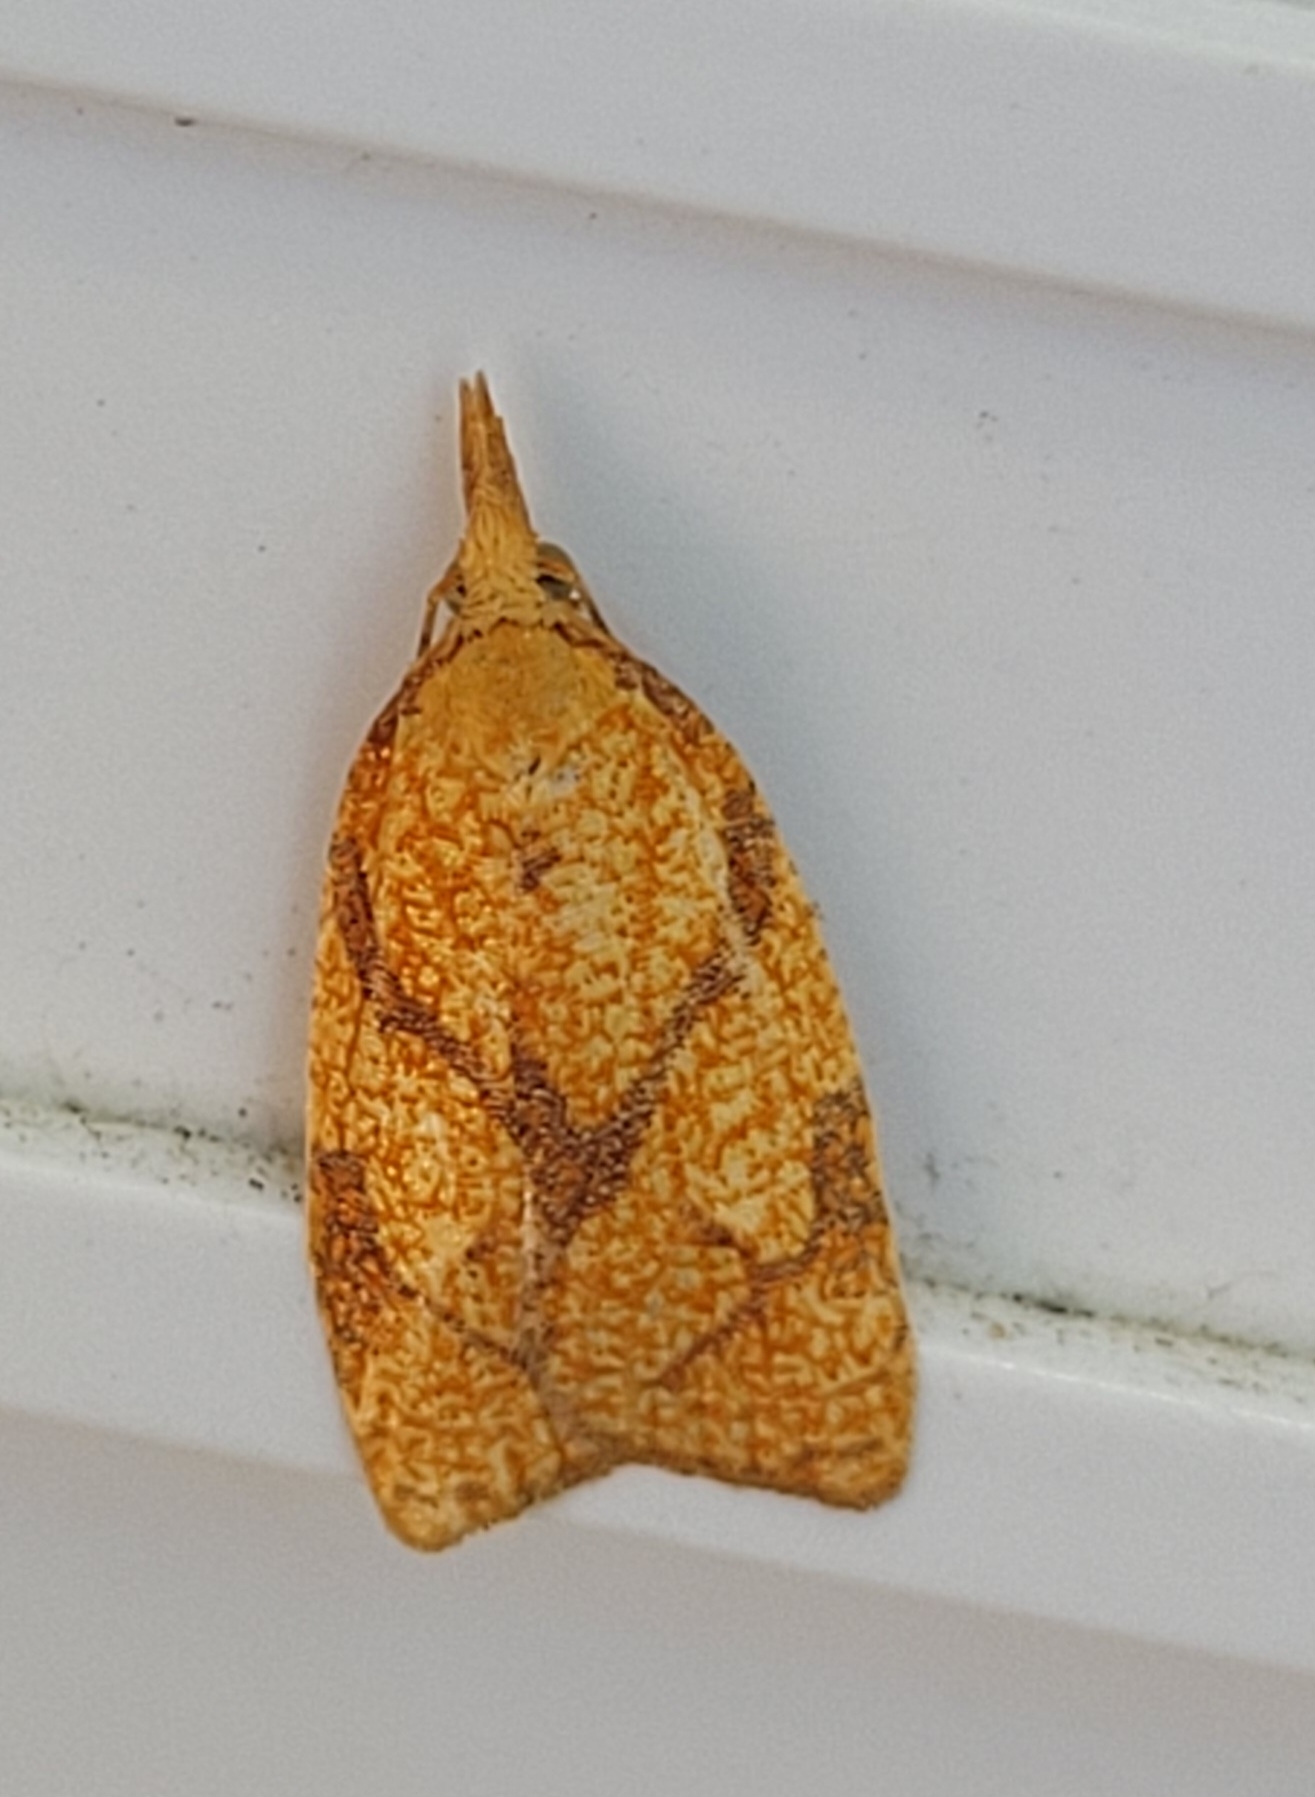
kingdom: Animalia
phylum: Arthropoda
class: Insecta
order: Lepidoptera
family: Tortricidae
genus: Cenopis
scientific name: Cenopis reticulatana
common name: Reticulated fruitworm moth
